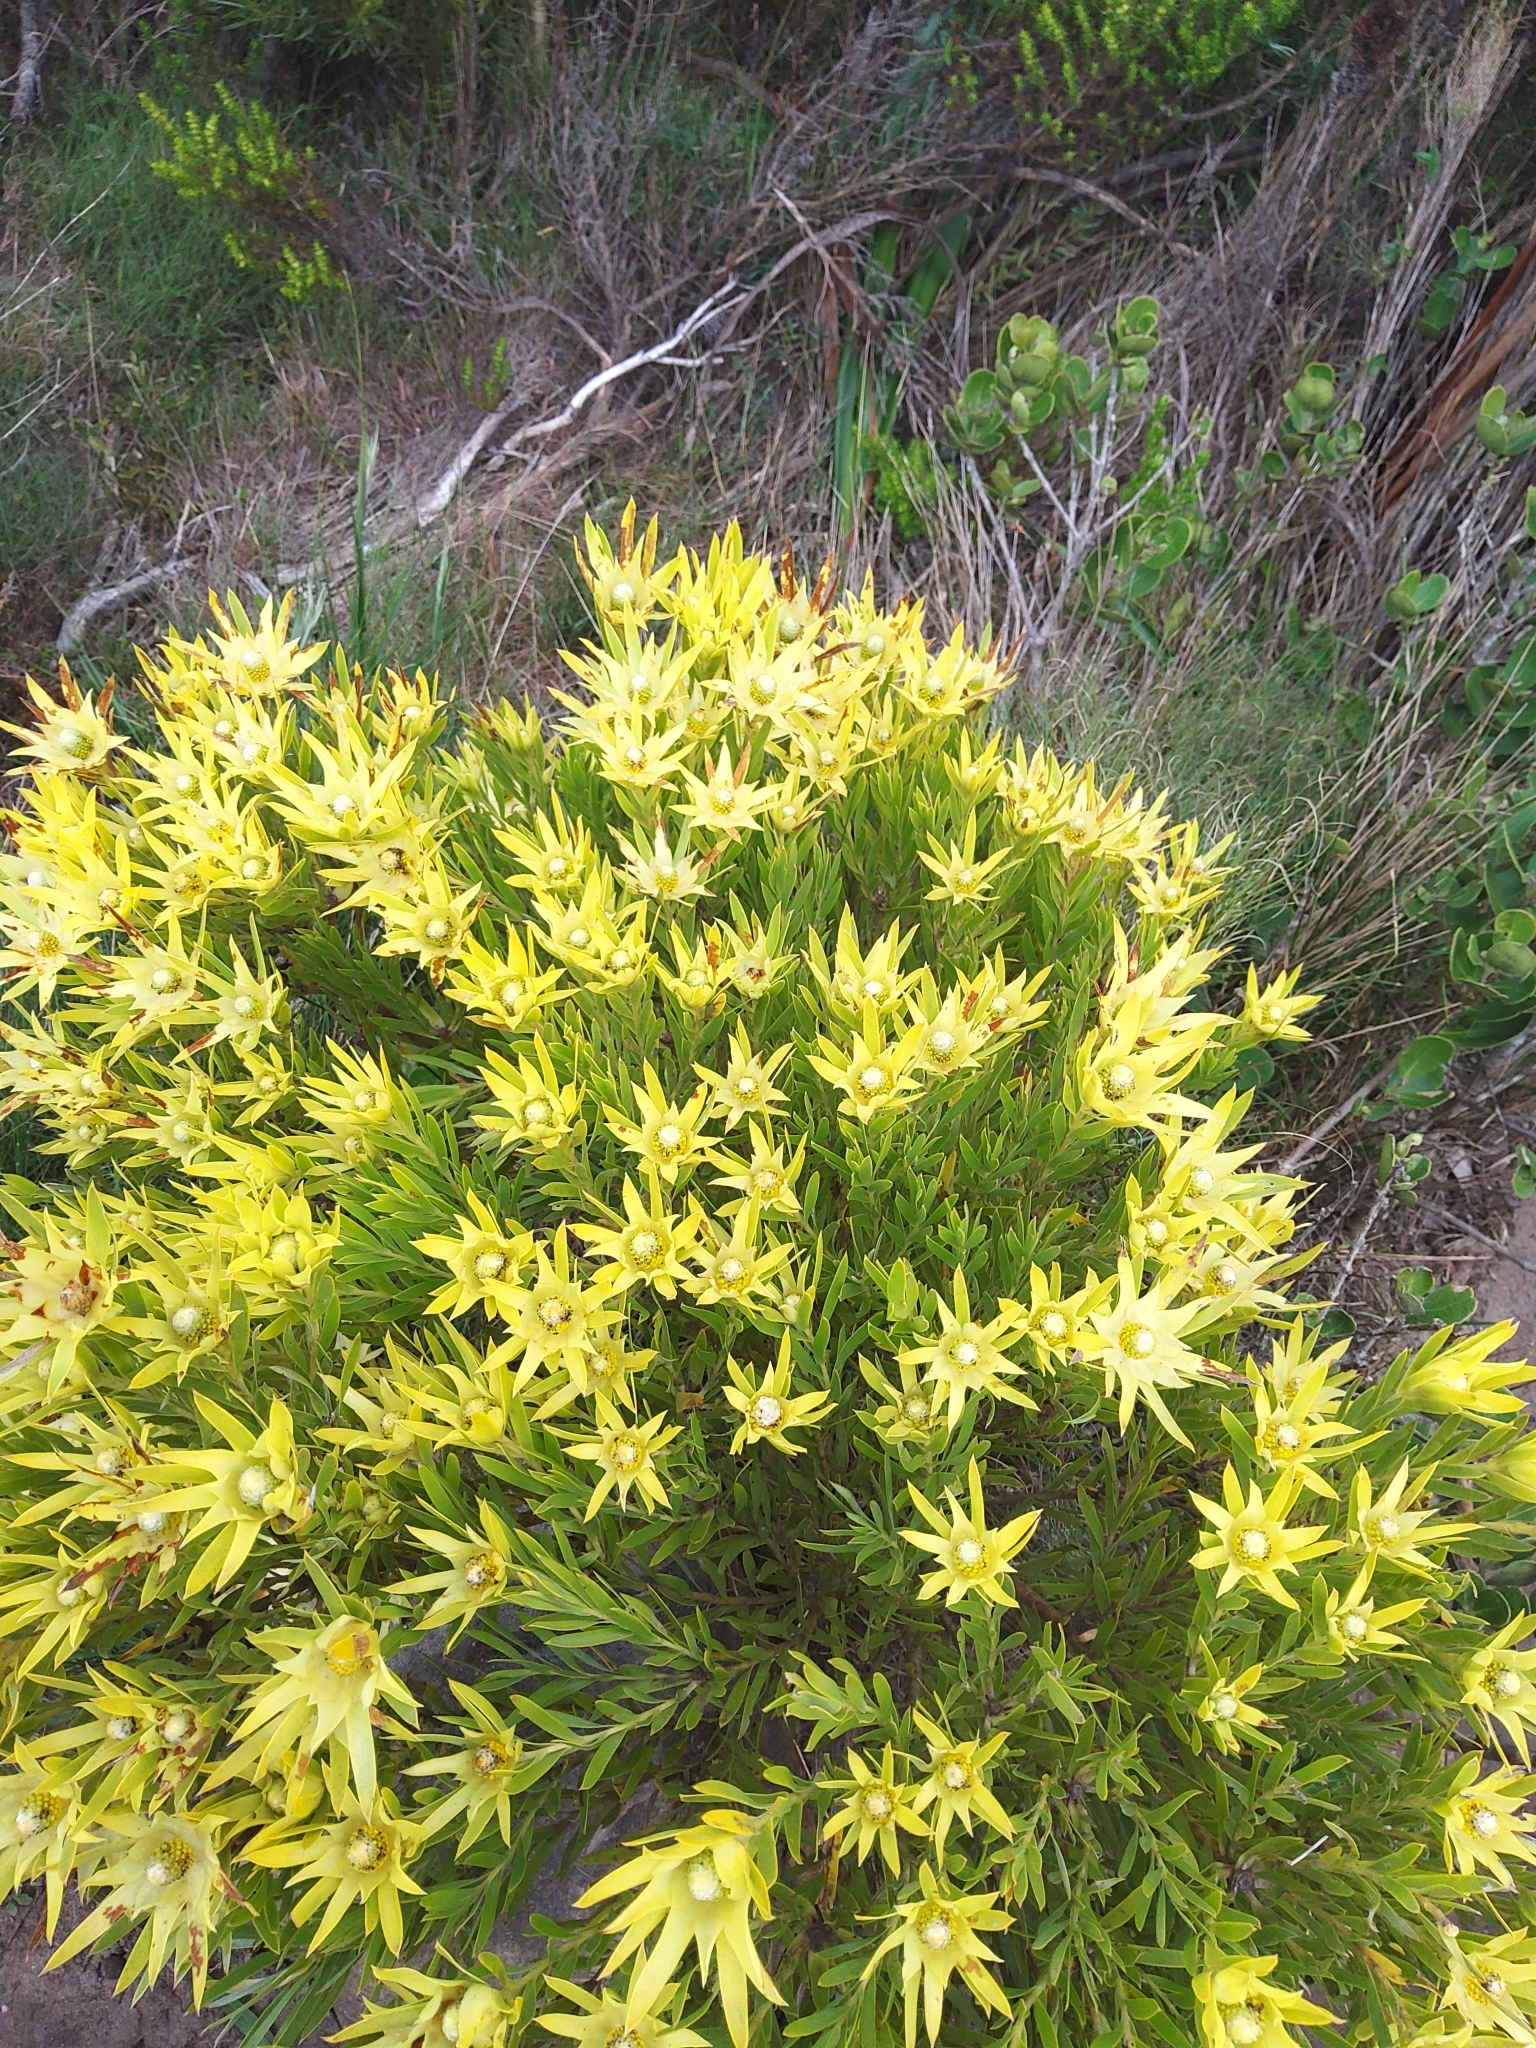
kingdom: Plantae
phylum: Tracheophyta
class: Magnoliopsida
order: Proteales
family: Proteaceae
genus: Leucadendron
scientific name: Leucadendron xanthoconus
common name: Sickle-leaf conebush
